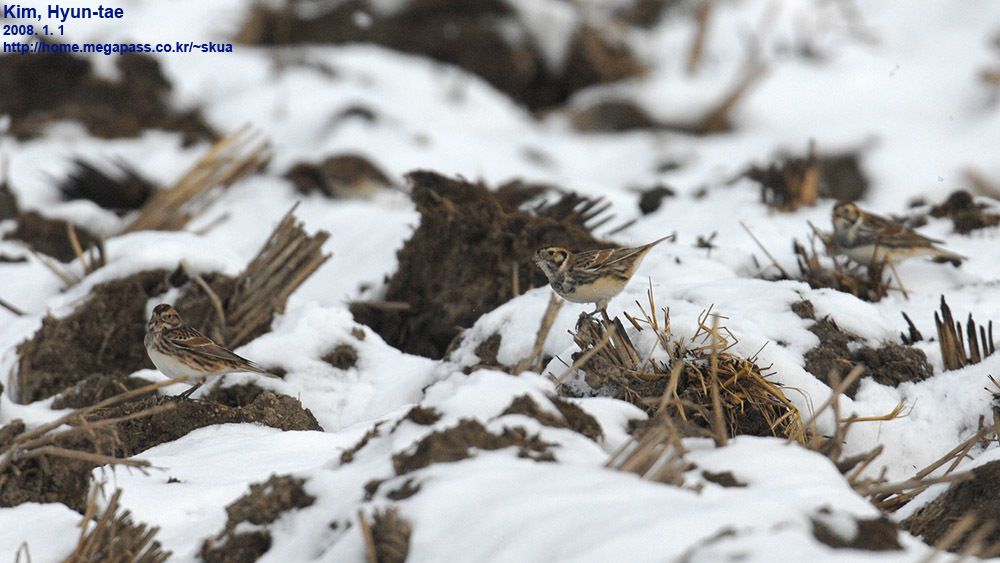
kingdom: Animalia
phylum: Chordata
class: Aves
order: Passeriformes
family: Calcariidae
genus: Calcarius
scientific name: Calcarius lapponicus
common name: Lapland longspur
